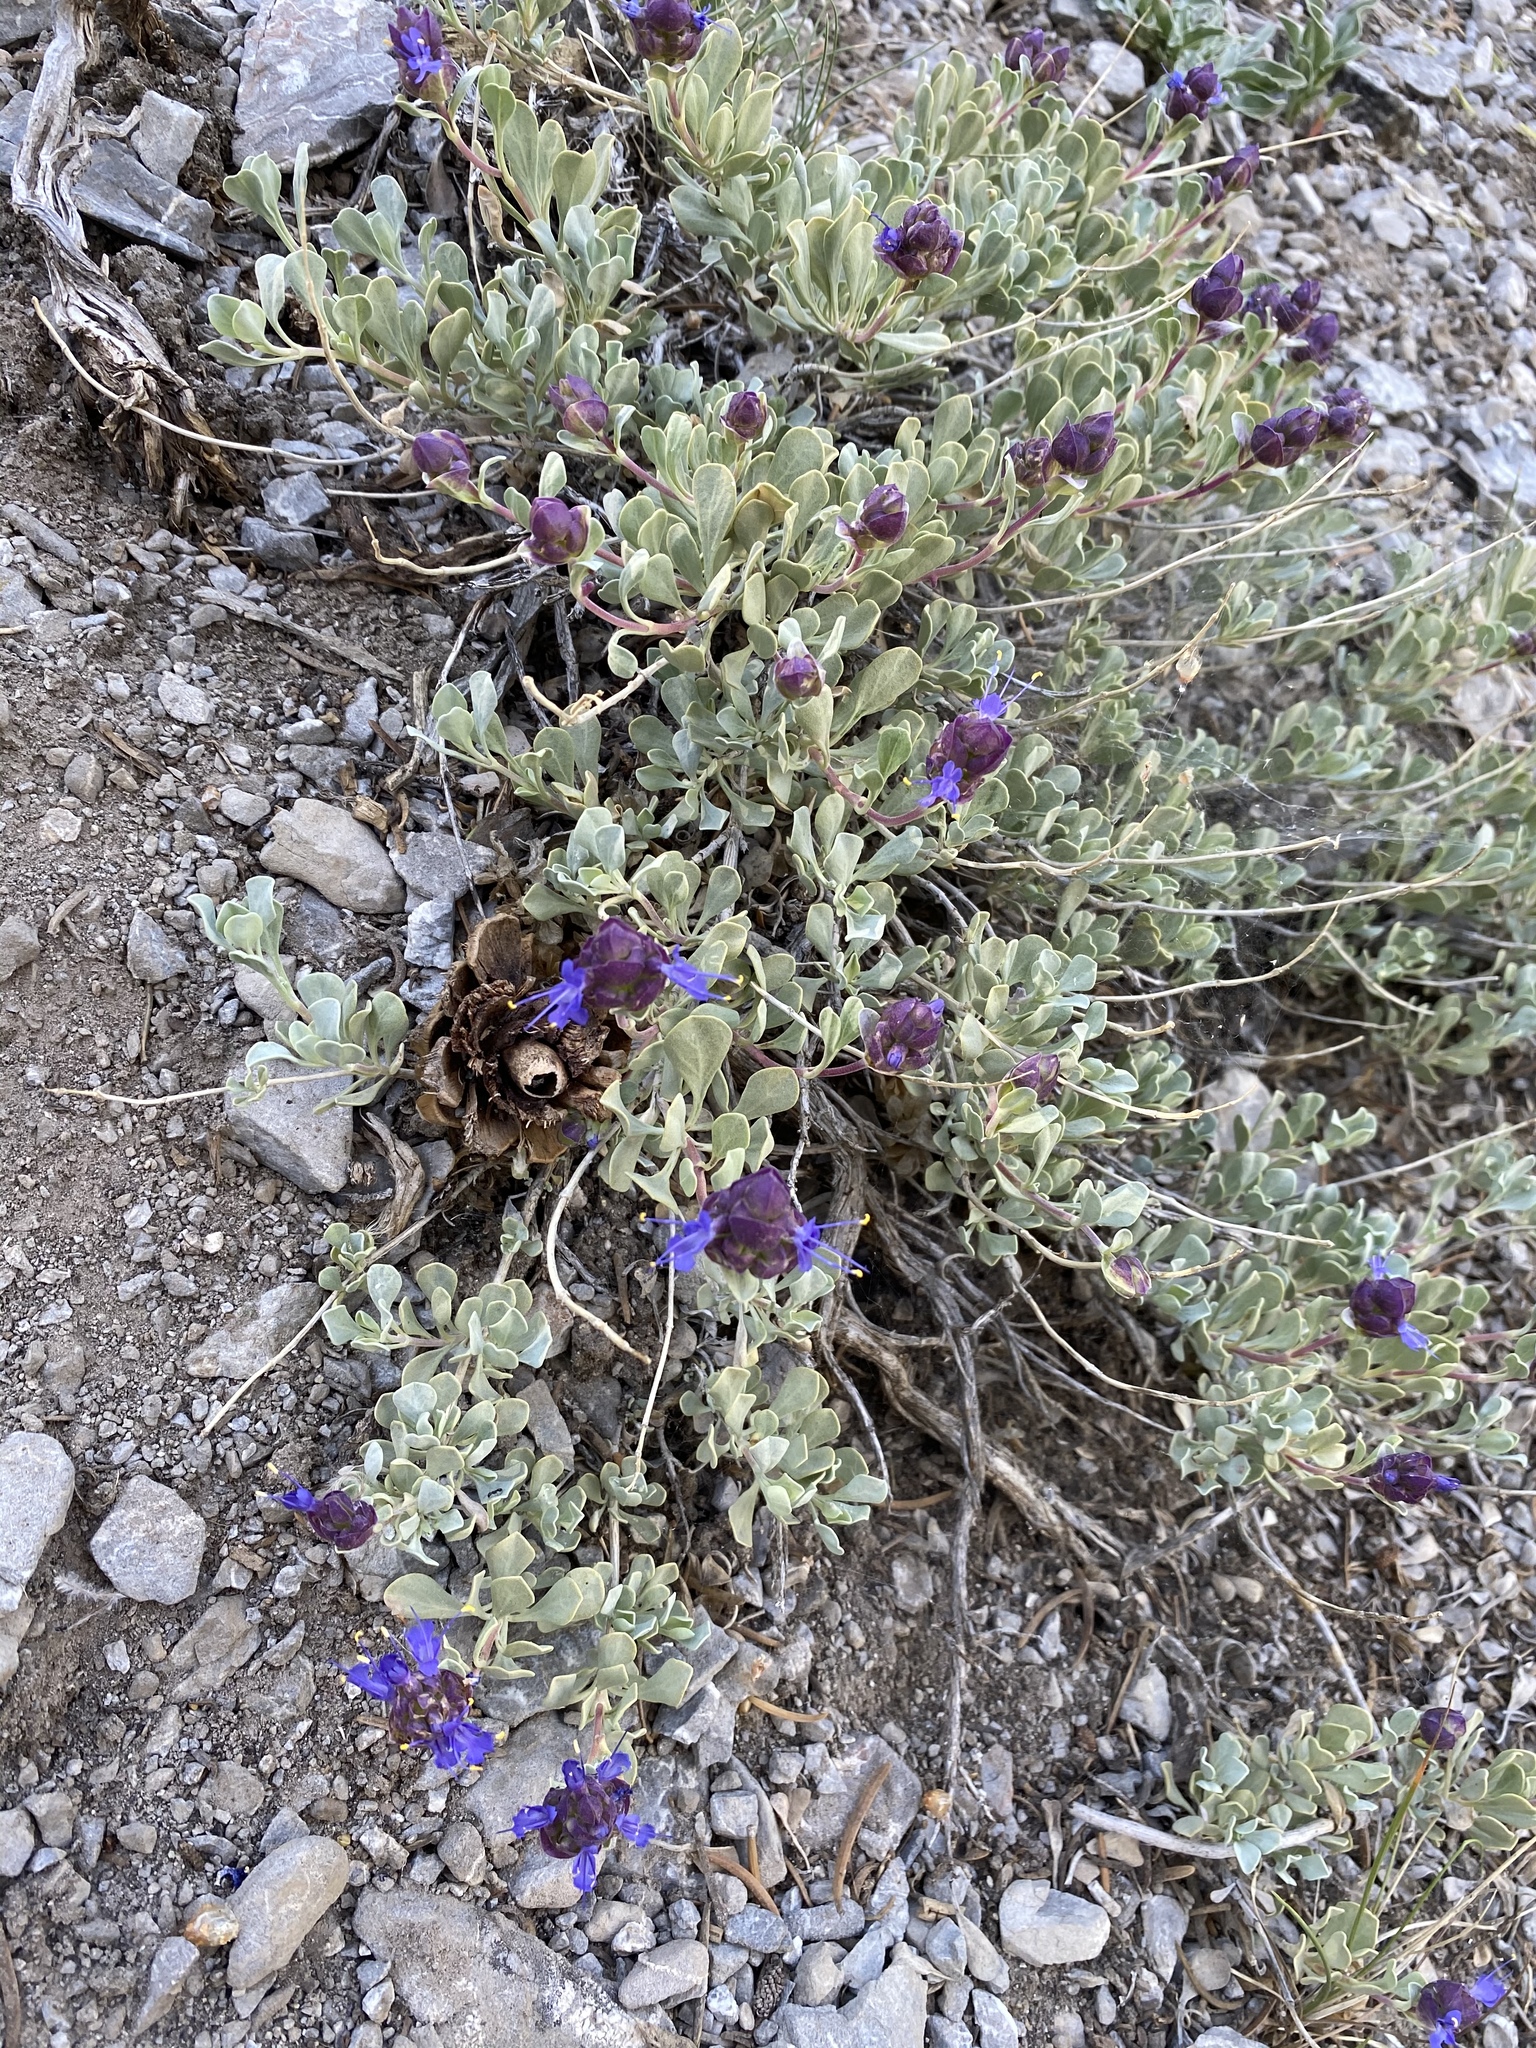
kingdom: Plantae
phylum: Tracheophyta
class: Magnoliopsida
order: Lamiales
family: Lamiaceae
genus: Salvia
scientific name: Salvia dorrii
